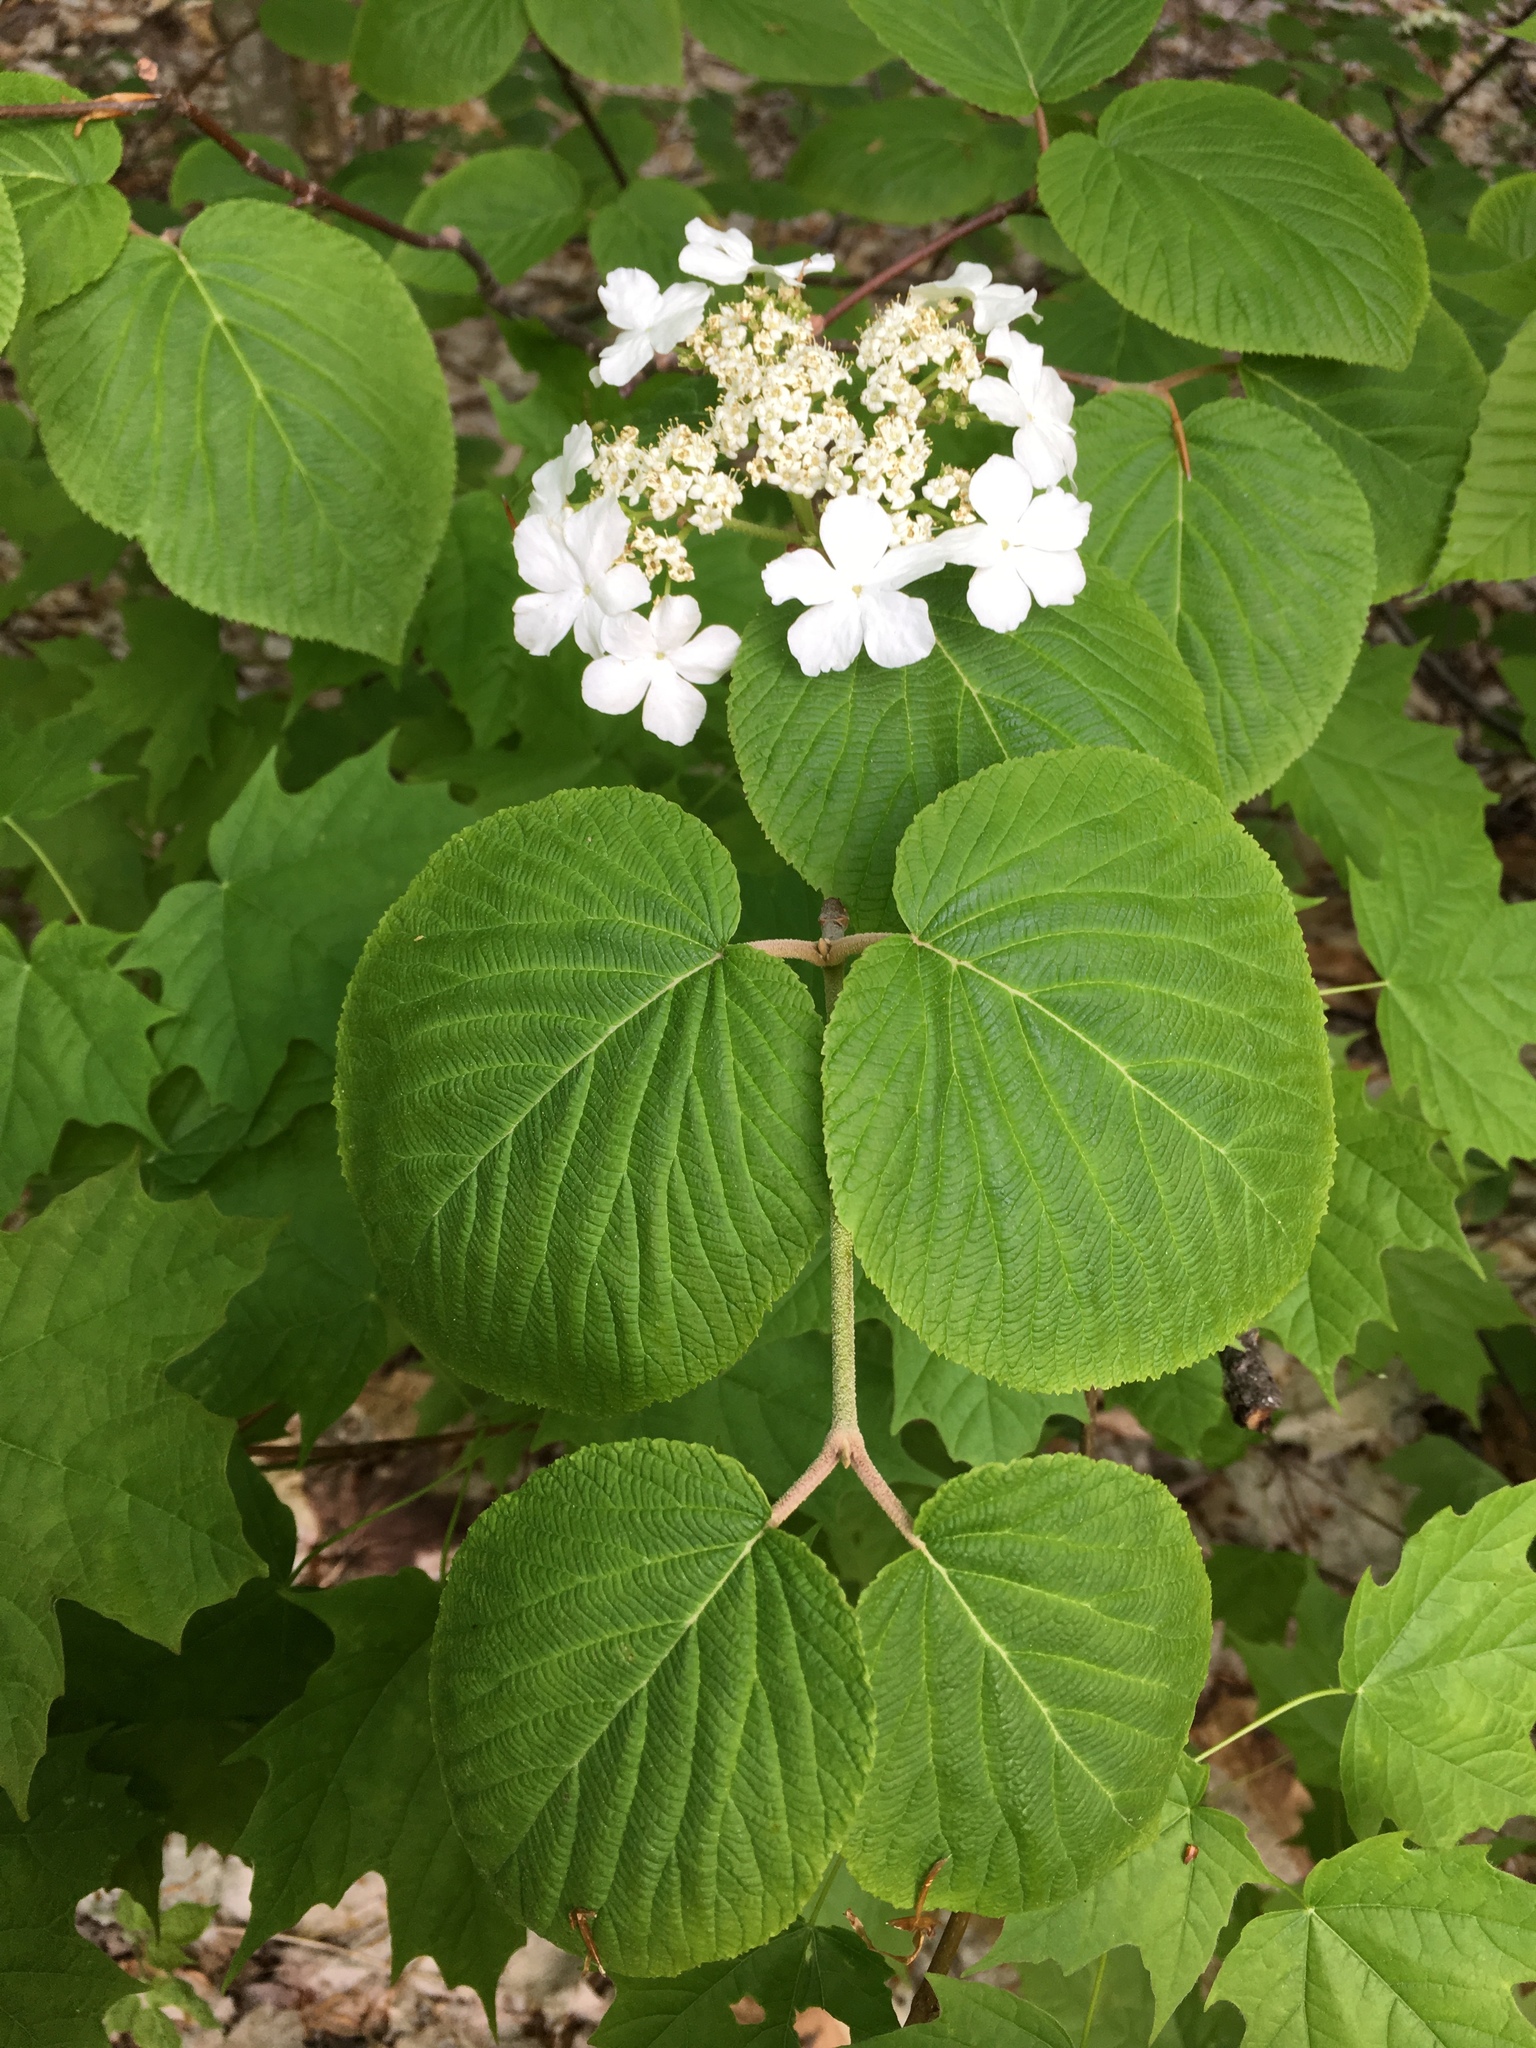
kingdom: Plantae
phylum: Tracheophyta
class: Magnoliopsida
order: Dipsacales
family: Viburnaceae
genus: Viburnum
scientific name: Viburnum lantanoides
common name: Hobblebush
